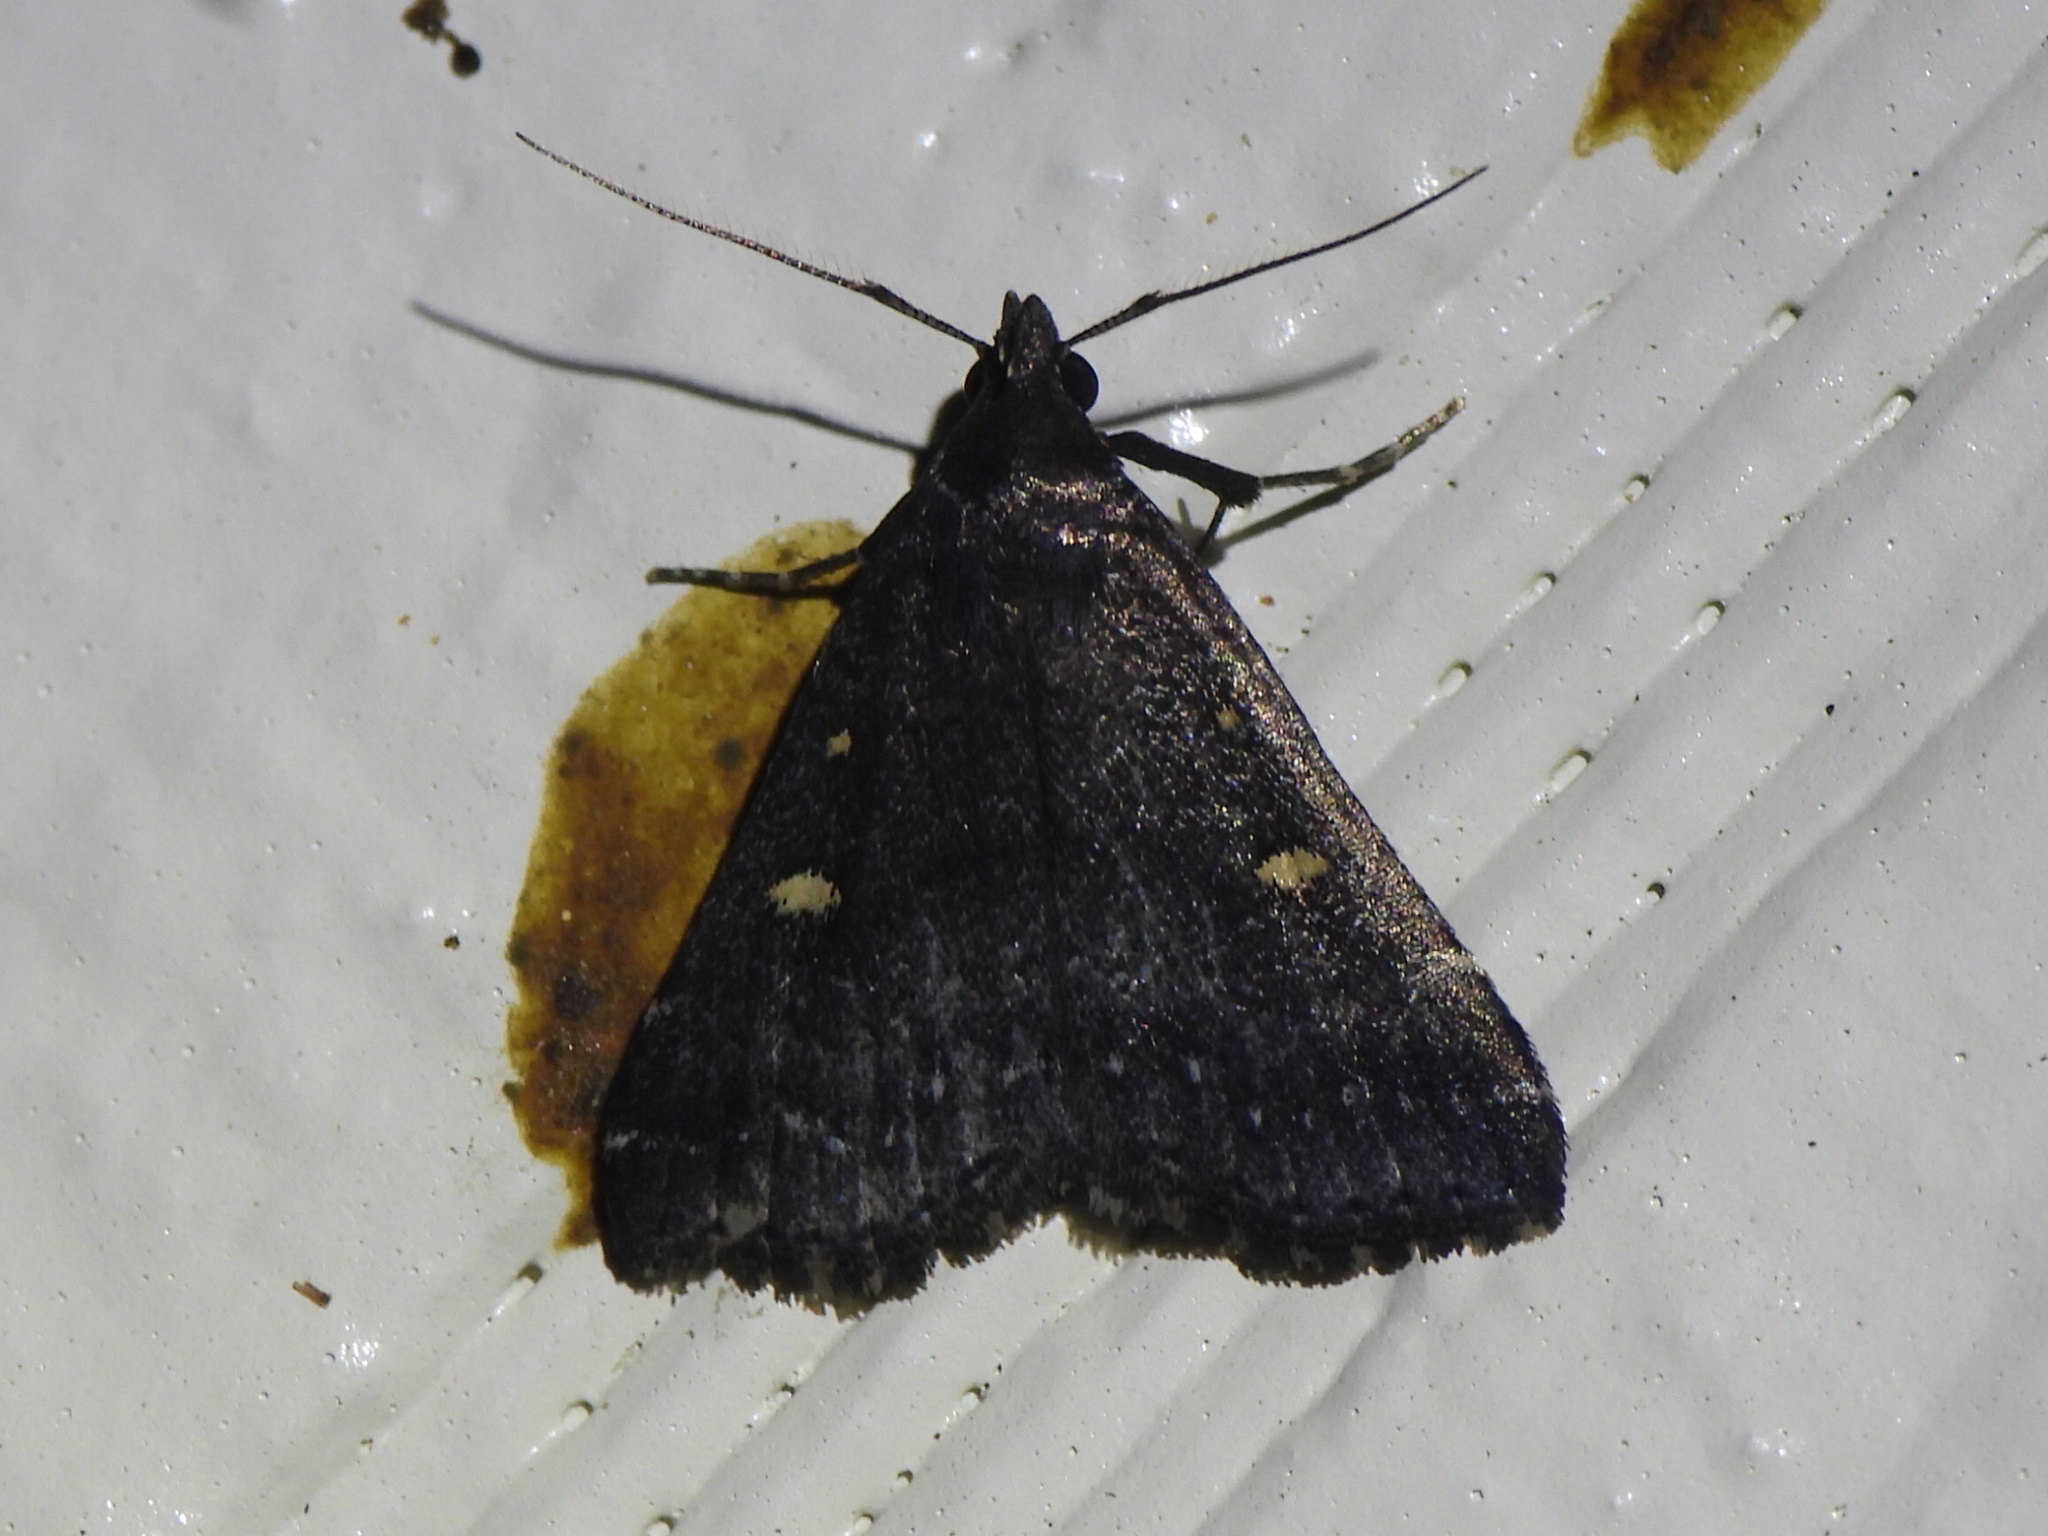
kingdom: Animalia
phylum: Arthropoda
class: Insecta
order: Lepidoptera
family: Erebidae
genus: Tetanolita
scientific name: Tetanolita mynesalis
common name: Smoky tetanolita moth
